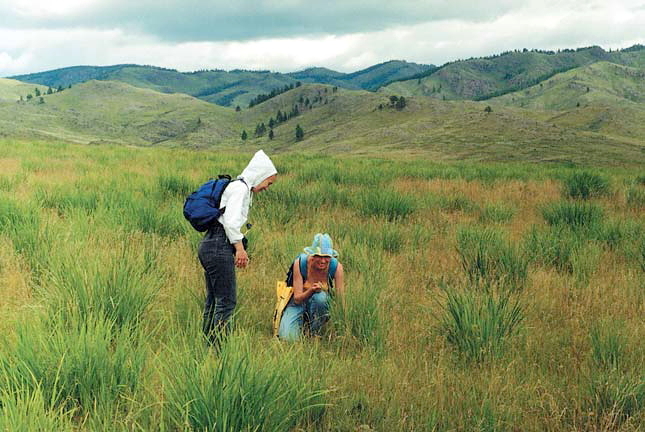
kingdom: Plantae
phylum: Tracheophyta
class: Liliopsida
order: Asparagales
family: Iridaceae
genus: Iris
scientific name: Iris lactea
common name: White-flower chinese iris
